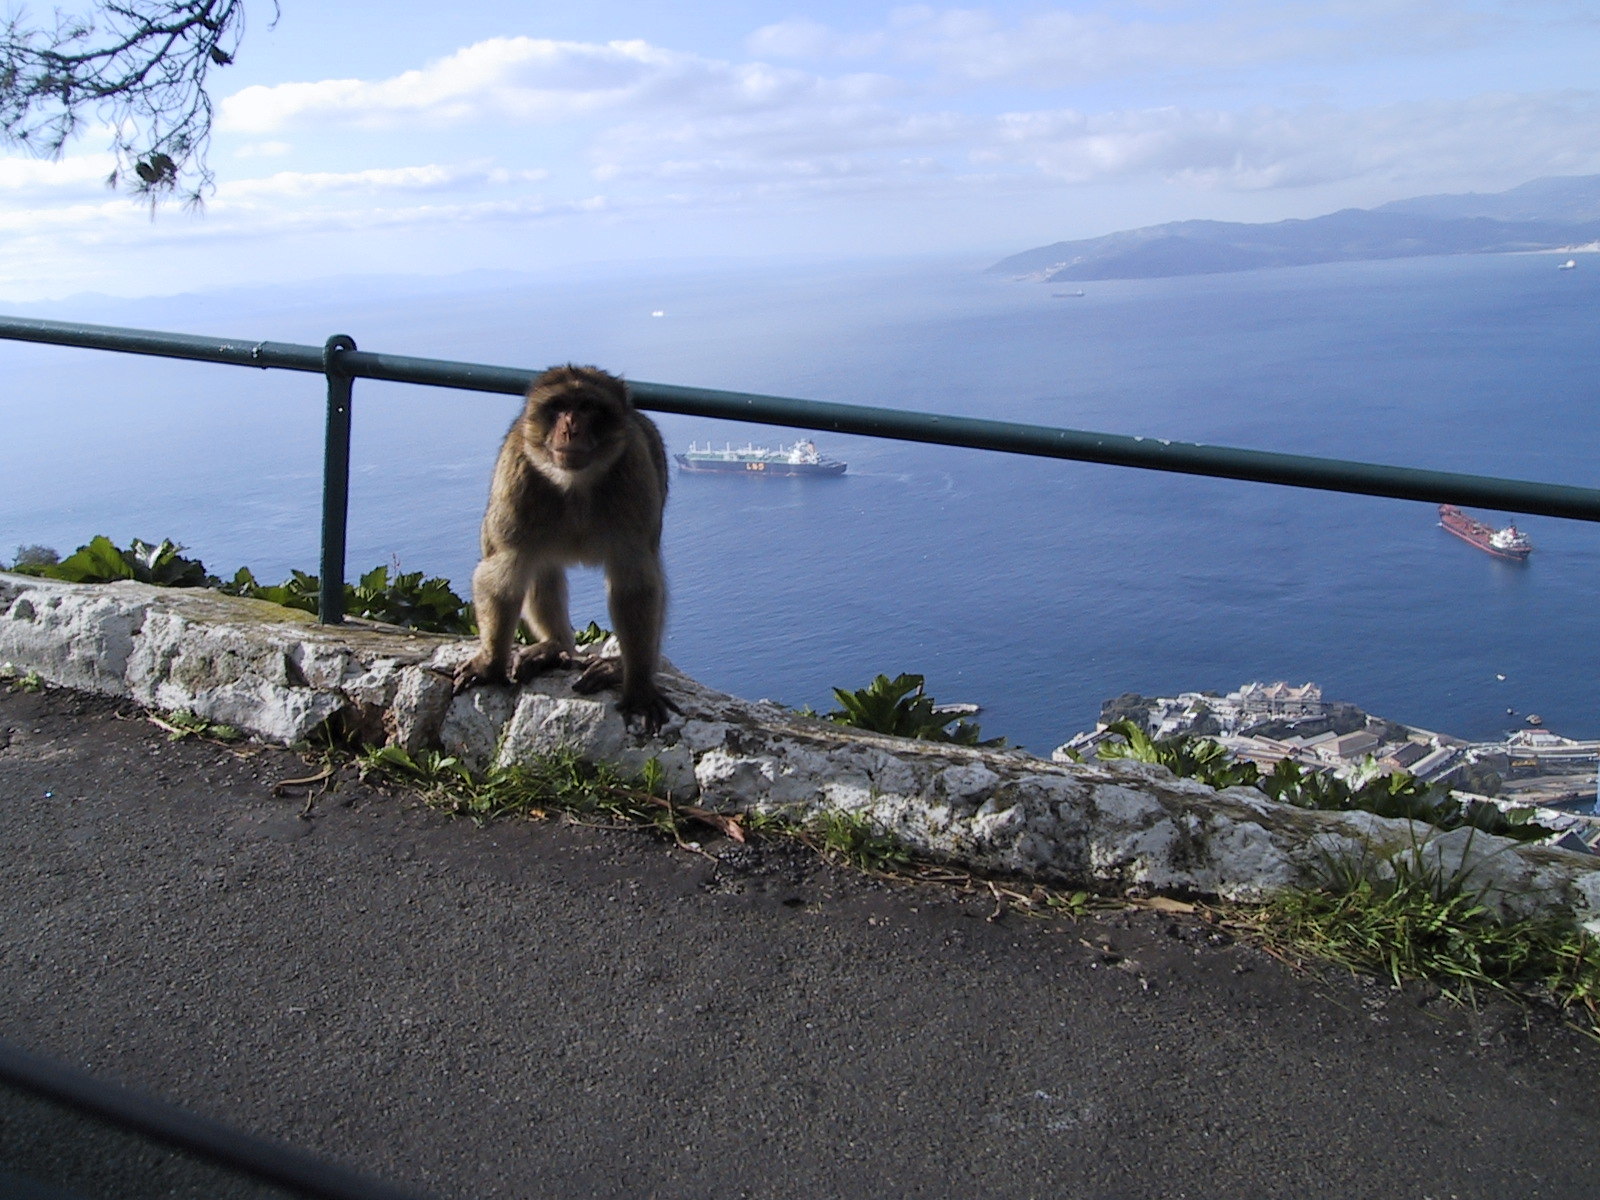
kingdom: Animalia
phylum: Chordata
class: Mammalia
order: Primates
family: Cercopithecidae
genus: Macaca
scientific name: Macaca sylvanus
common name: Barbary macaque
